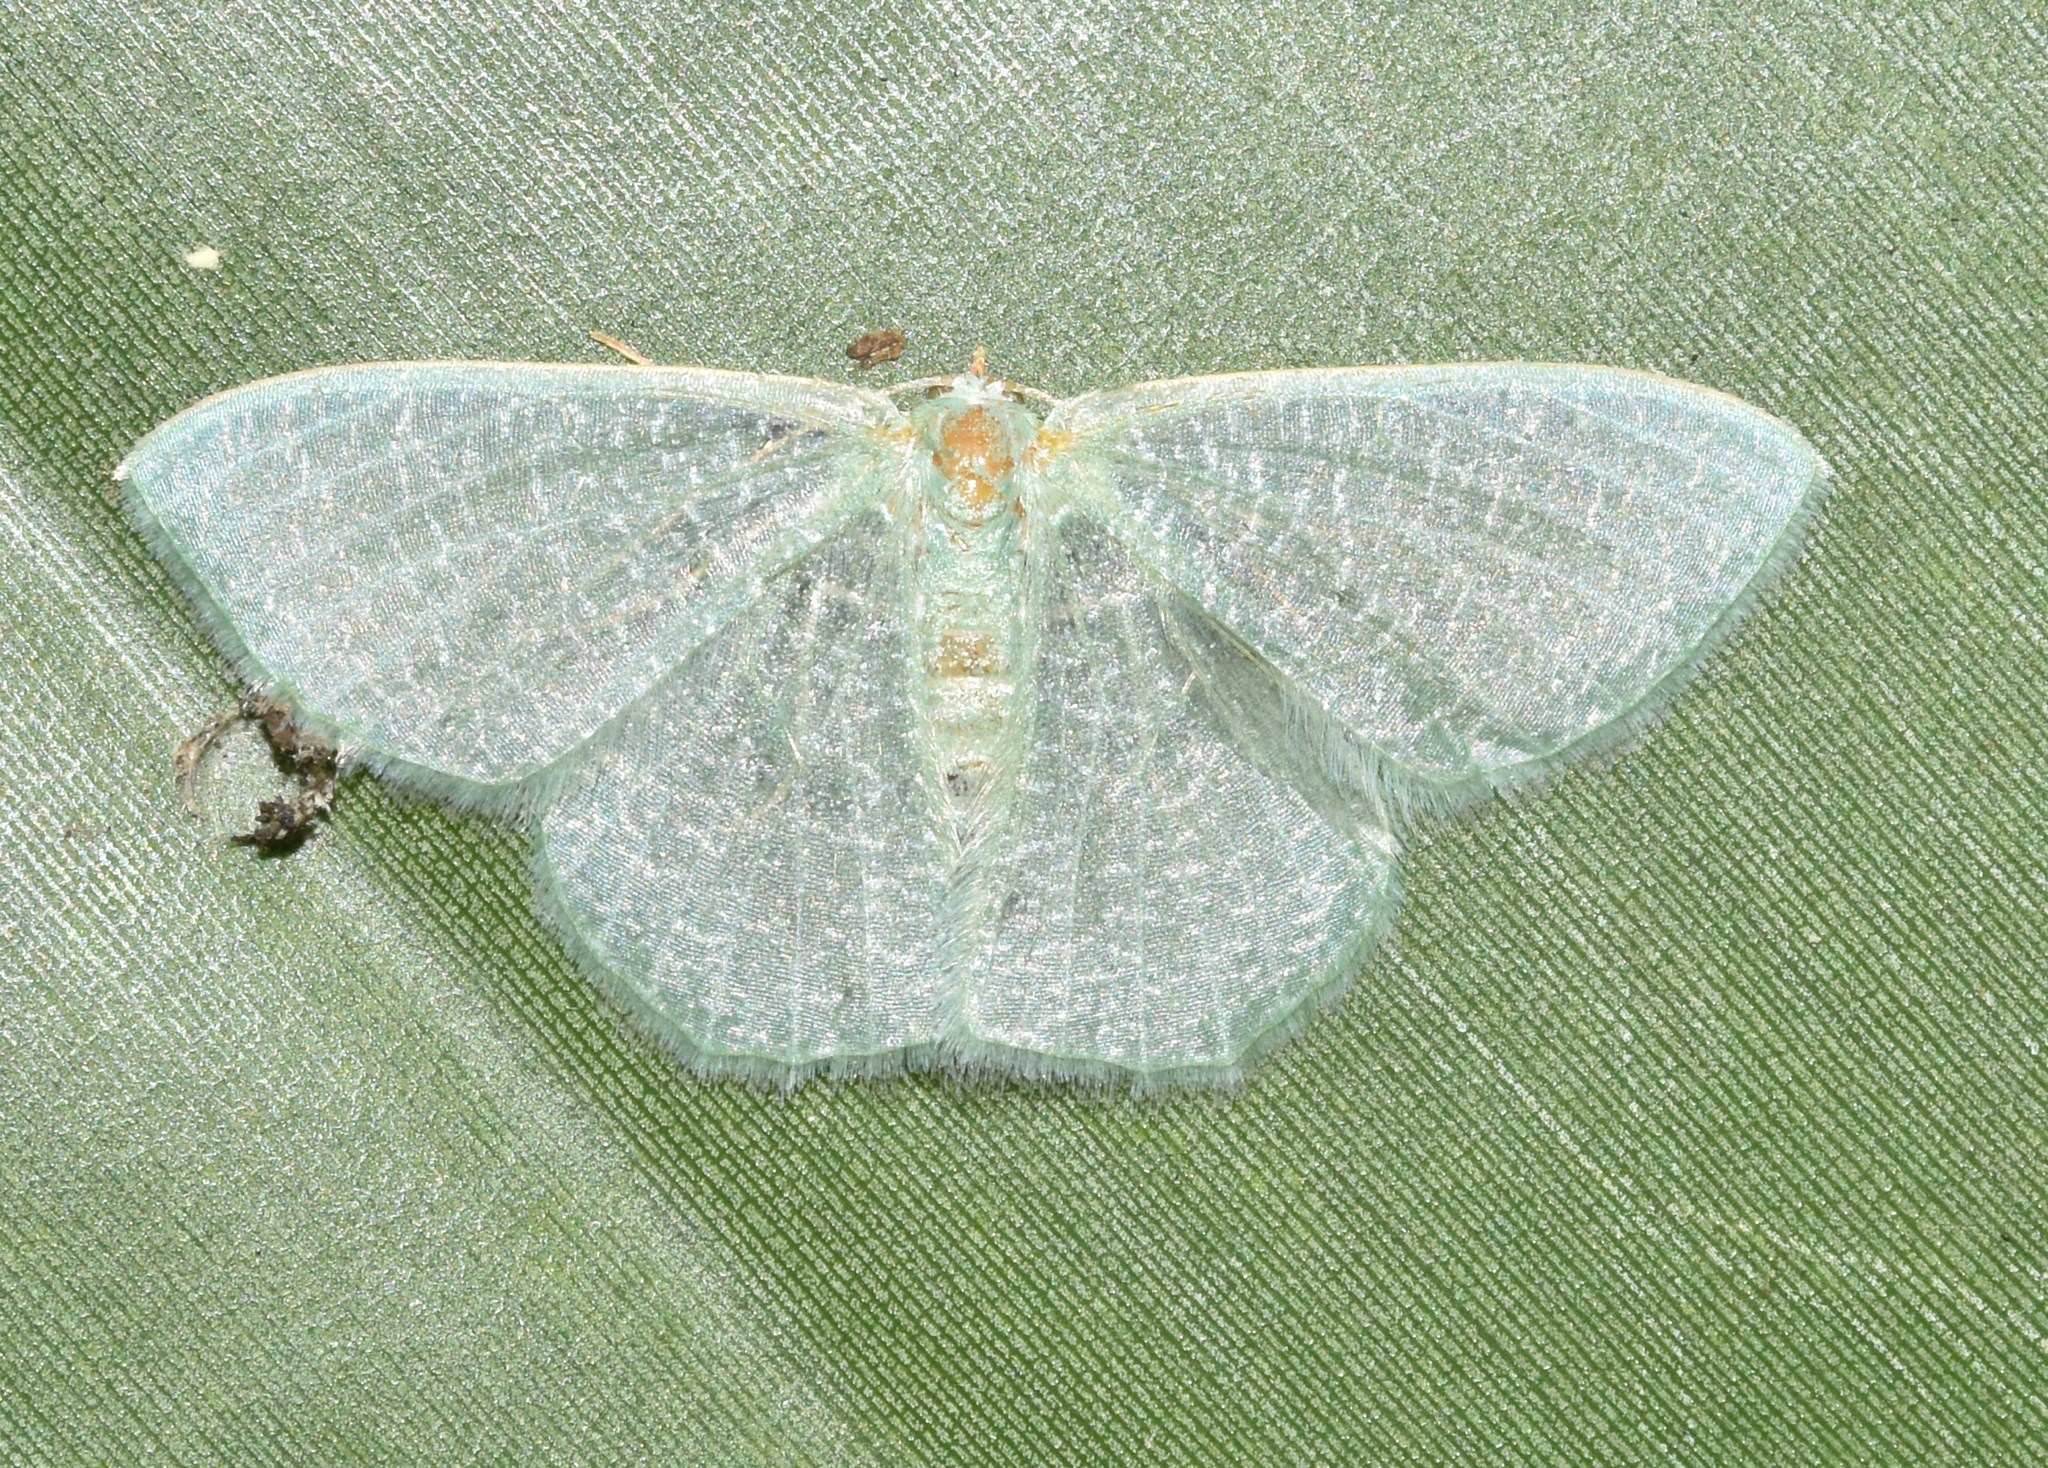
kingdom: Animalia
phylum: Arthropoda
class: Insecta
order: Lepidoptera
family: Geometridae
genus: Prasinocyma
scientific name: Prasinocyma immaculata
